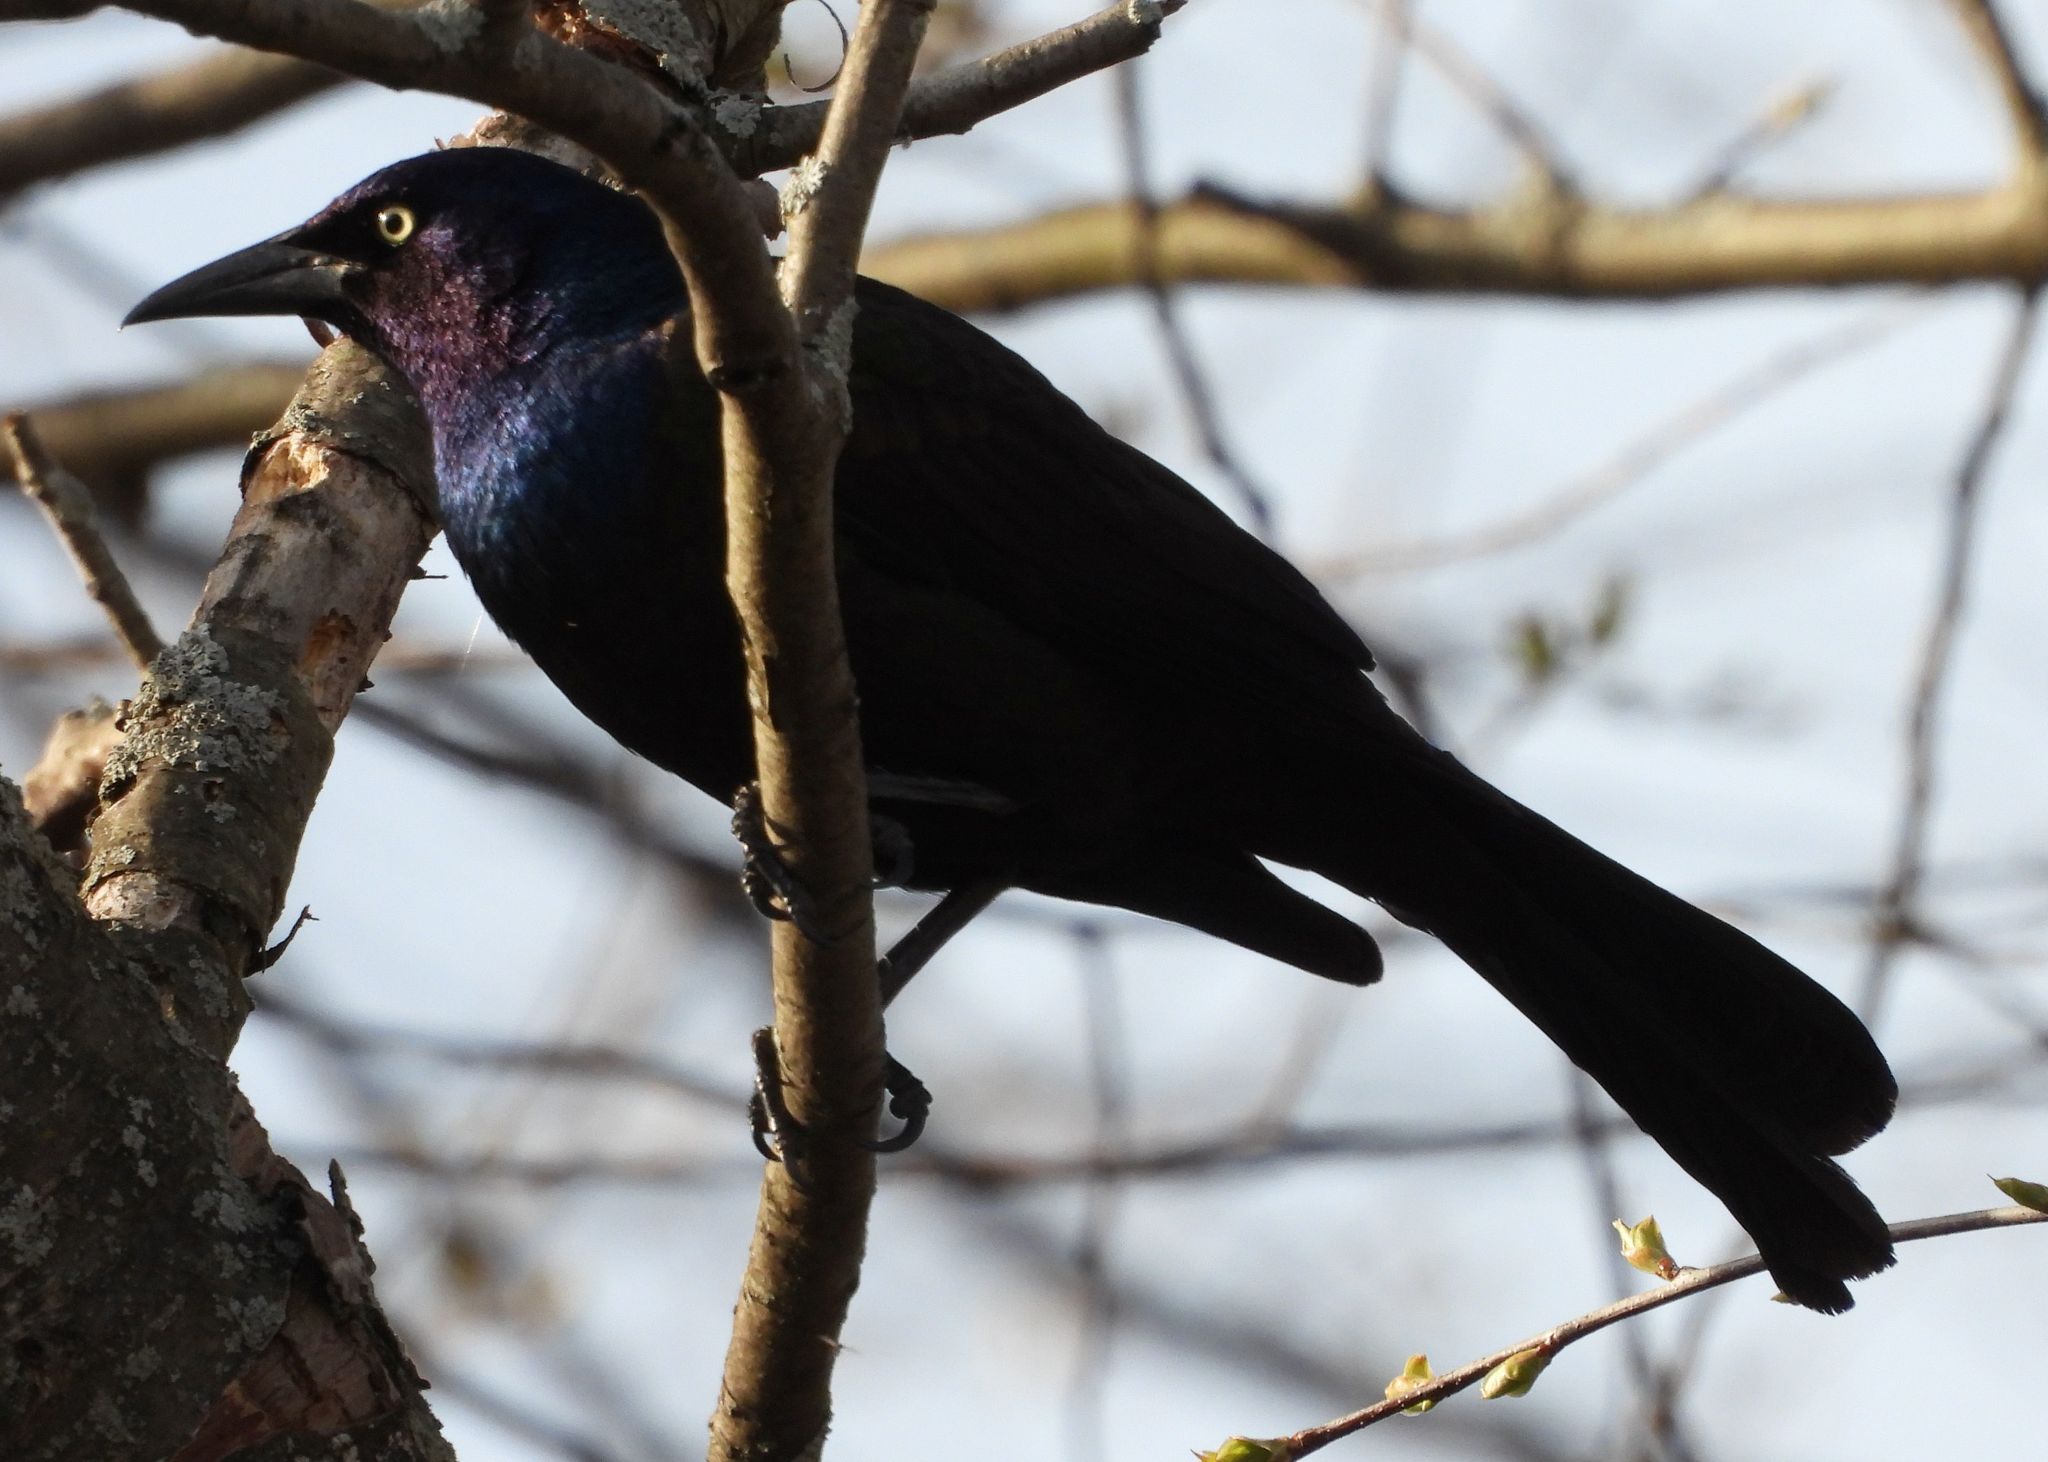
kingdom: Animalia
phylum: Chordata
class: Aves
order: Passeriformes
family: Icteridae
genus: Quiscalus
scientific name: Quiscalus quiscula
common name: Common grackle
